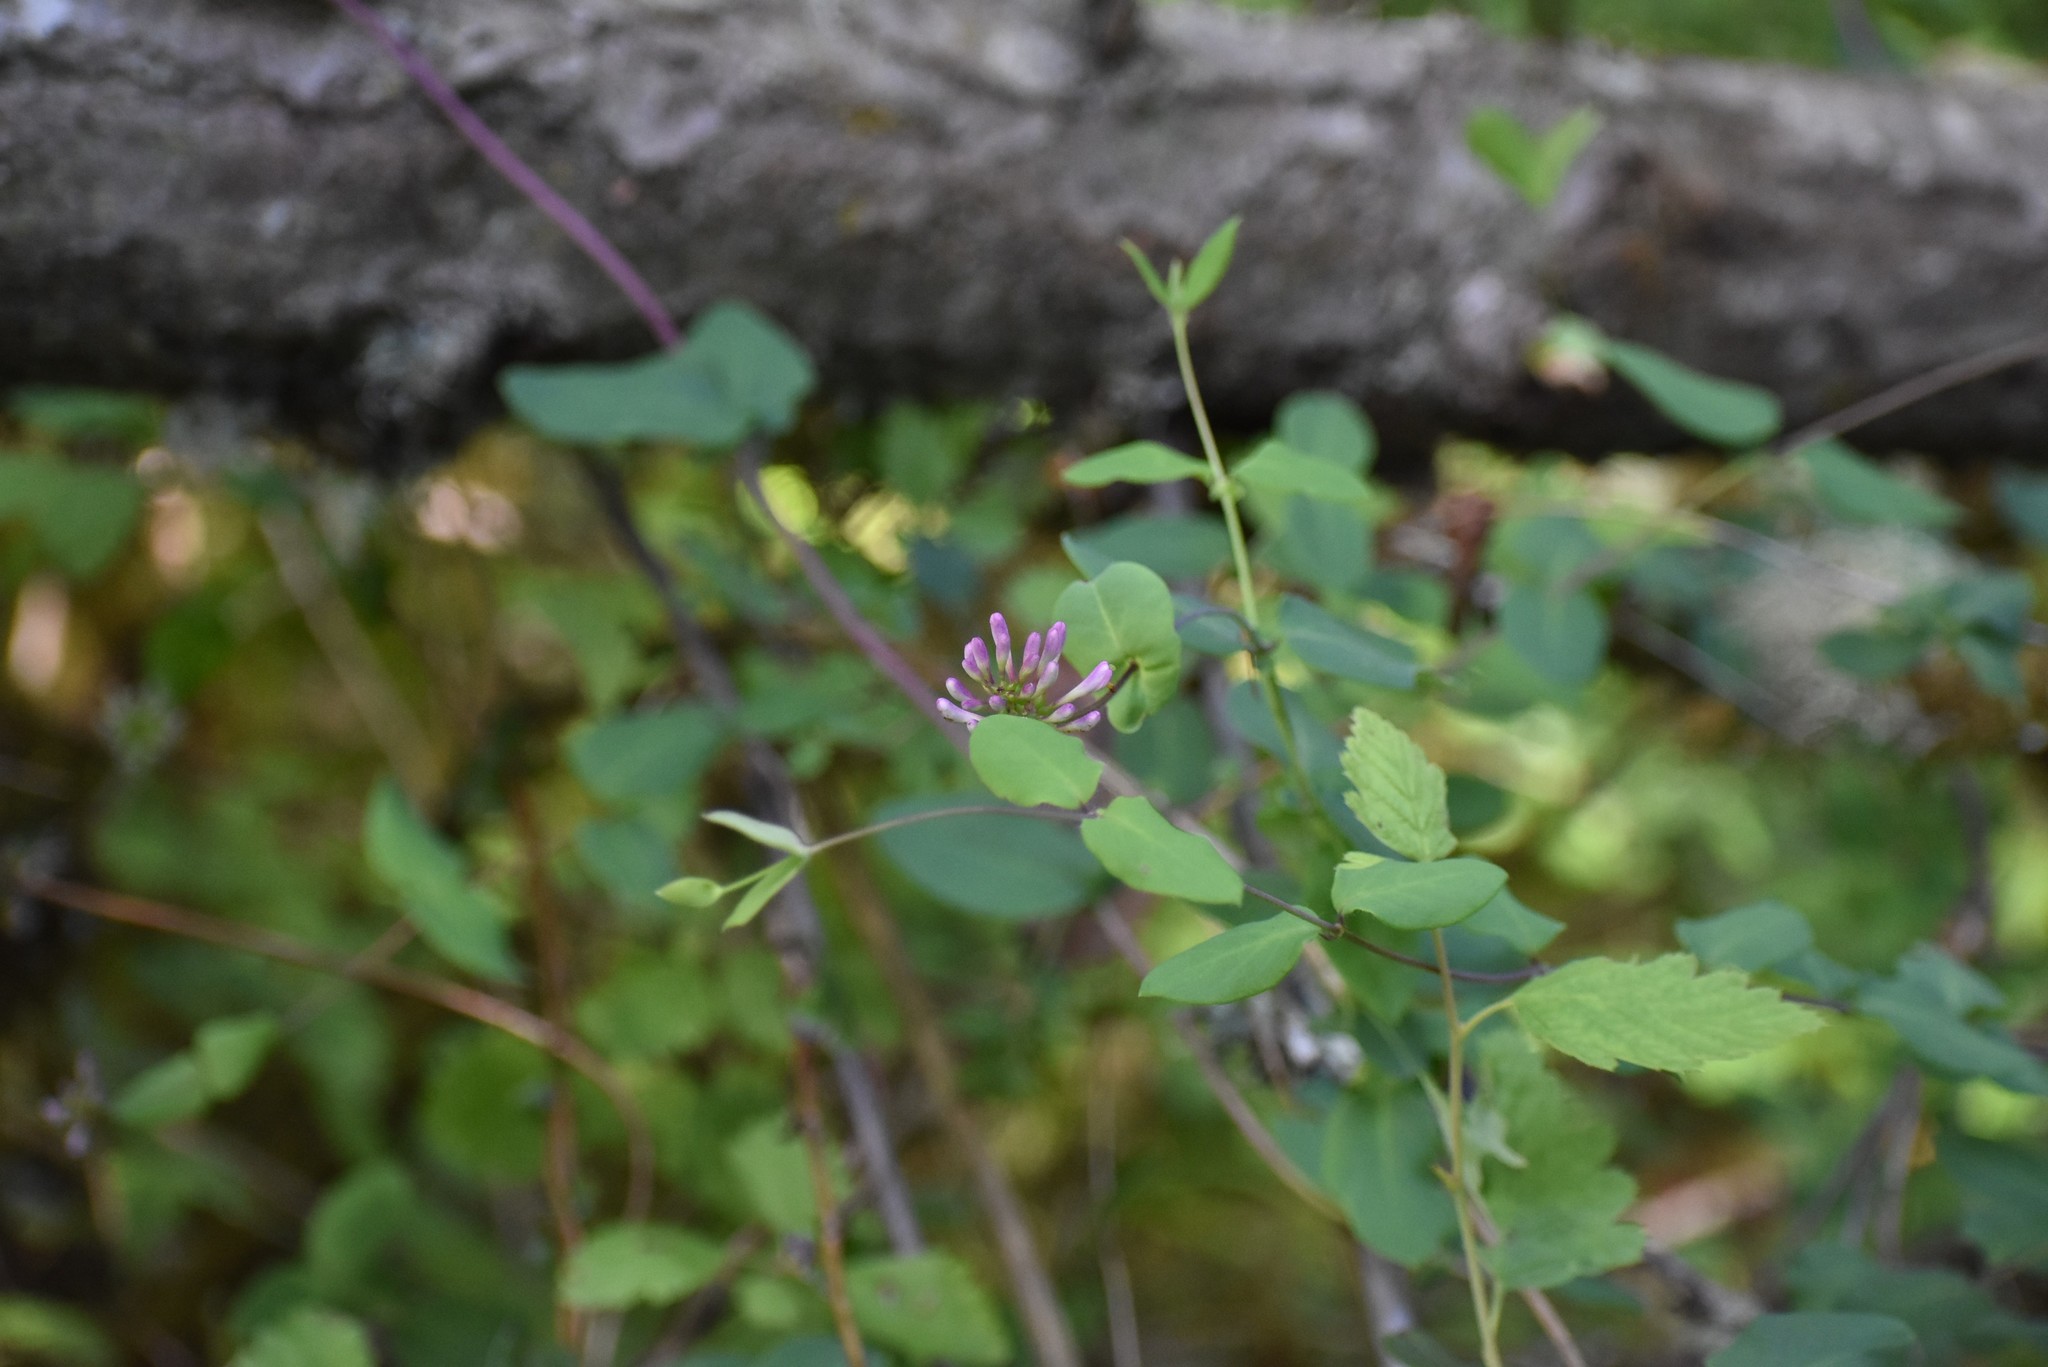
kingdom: Plantae
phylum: Tracheophyta
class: Magnoliopsida
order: Dipsacales
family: Caprifoliaceae
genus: Lonicera
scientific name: Lonicera hispidula
